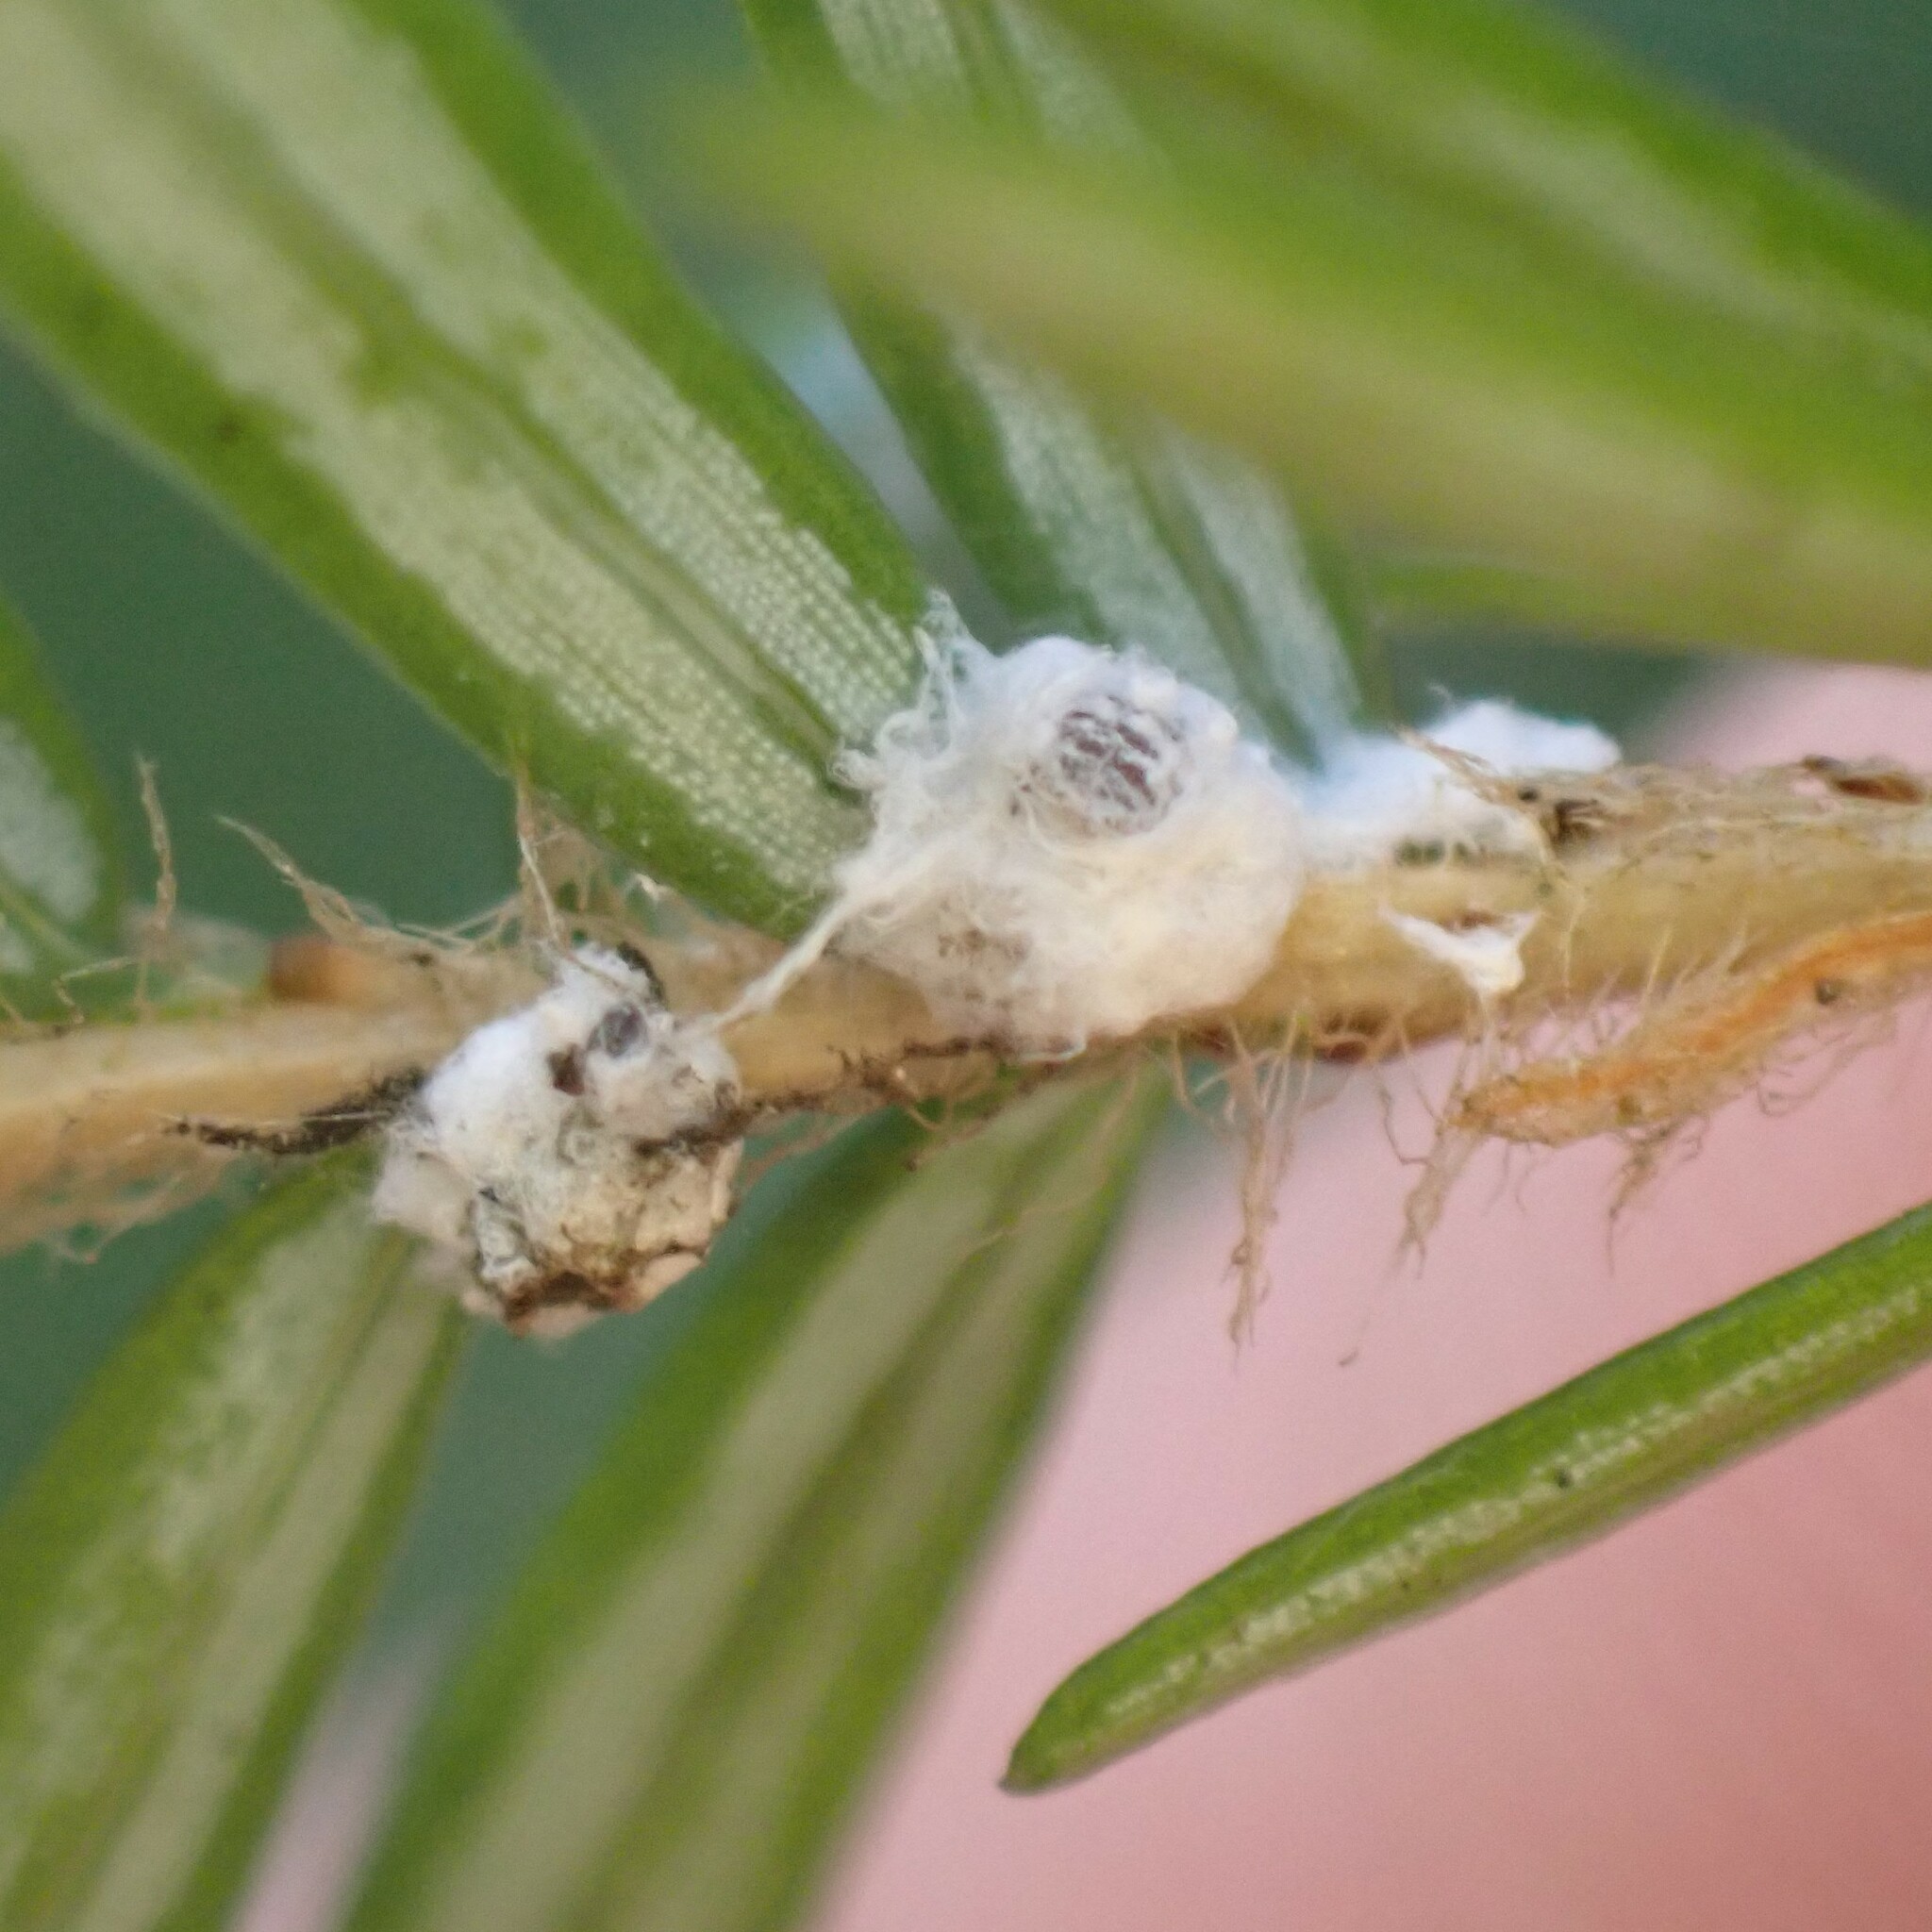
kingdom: Animalia
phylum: Arthropoda
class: Insecta
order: Hemiptera
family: Adelgidae
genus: Adelges
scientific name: Adelges tsugae
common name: Hemlock woolly adelgid
